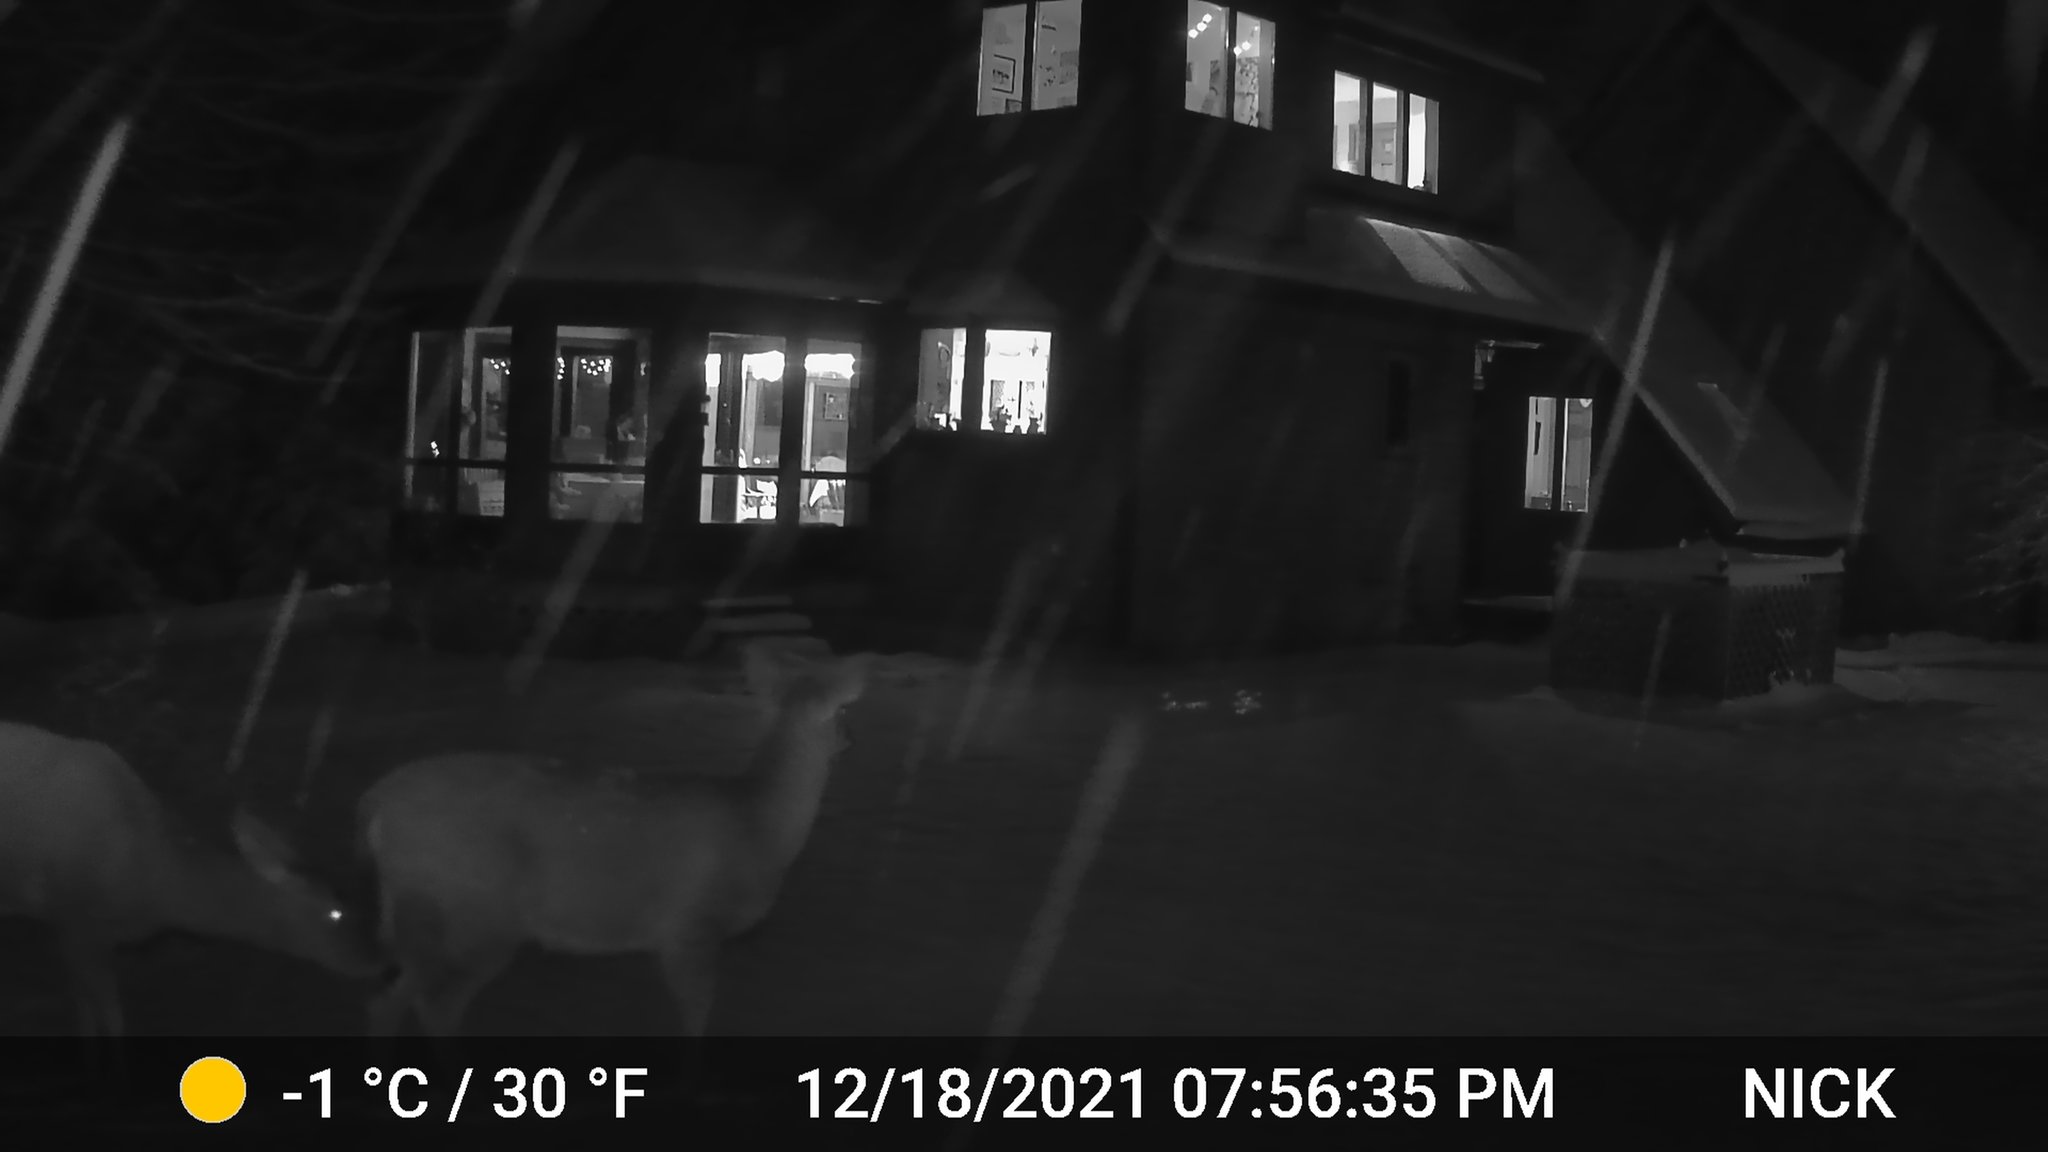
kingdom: Animalia
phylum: Chordata
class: Mammalia
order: Artiodactyla
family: Cervidae
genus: Odocoileus
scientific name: Odocoileus virginianus
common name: White-tailed deer
